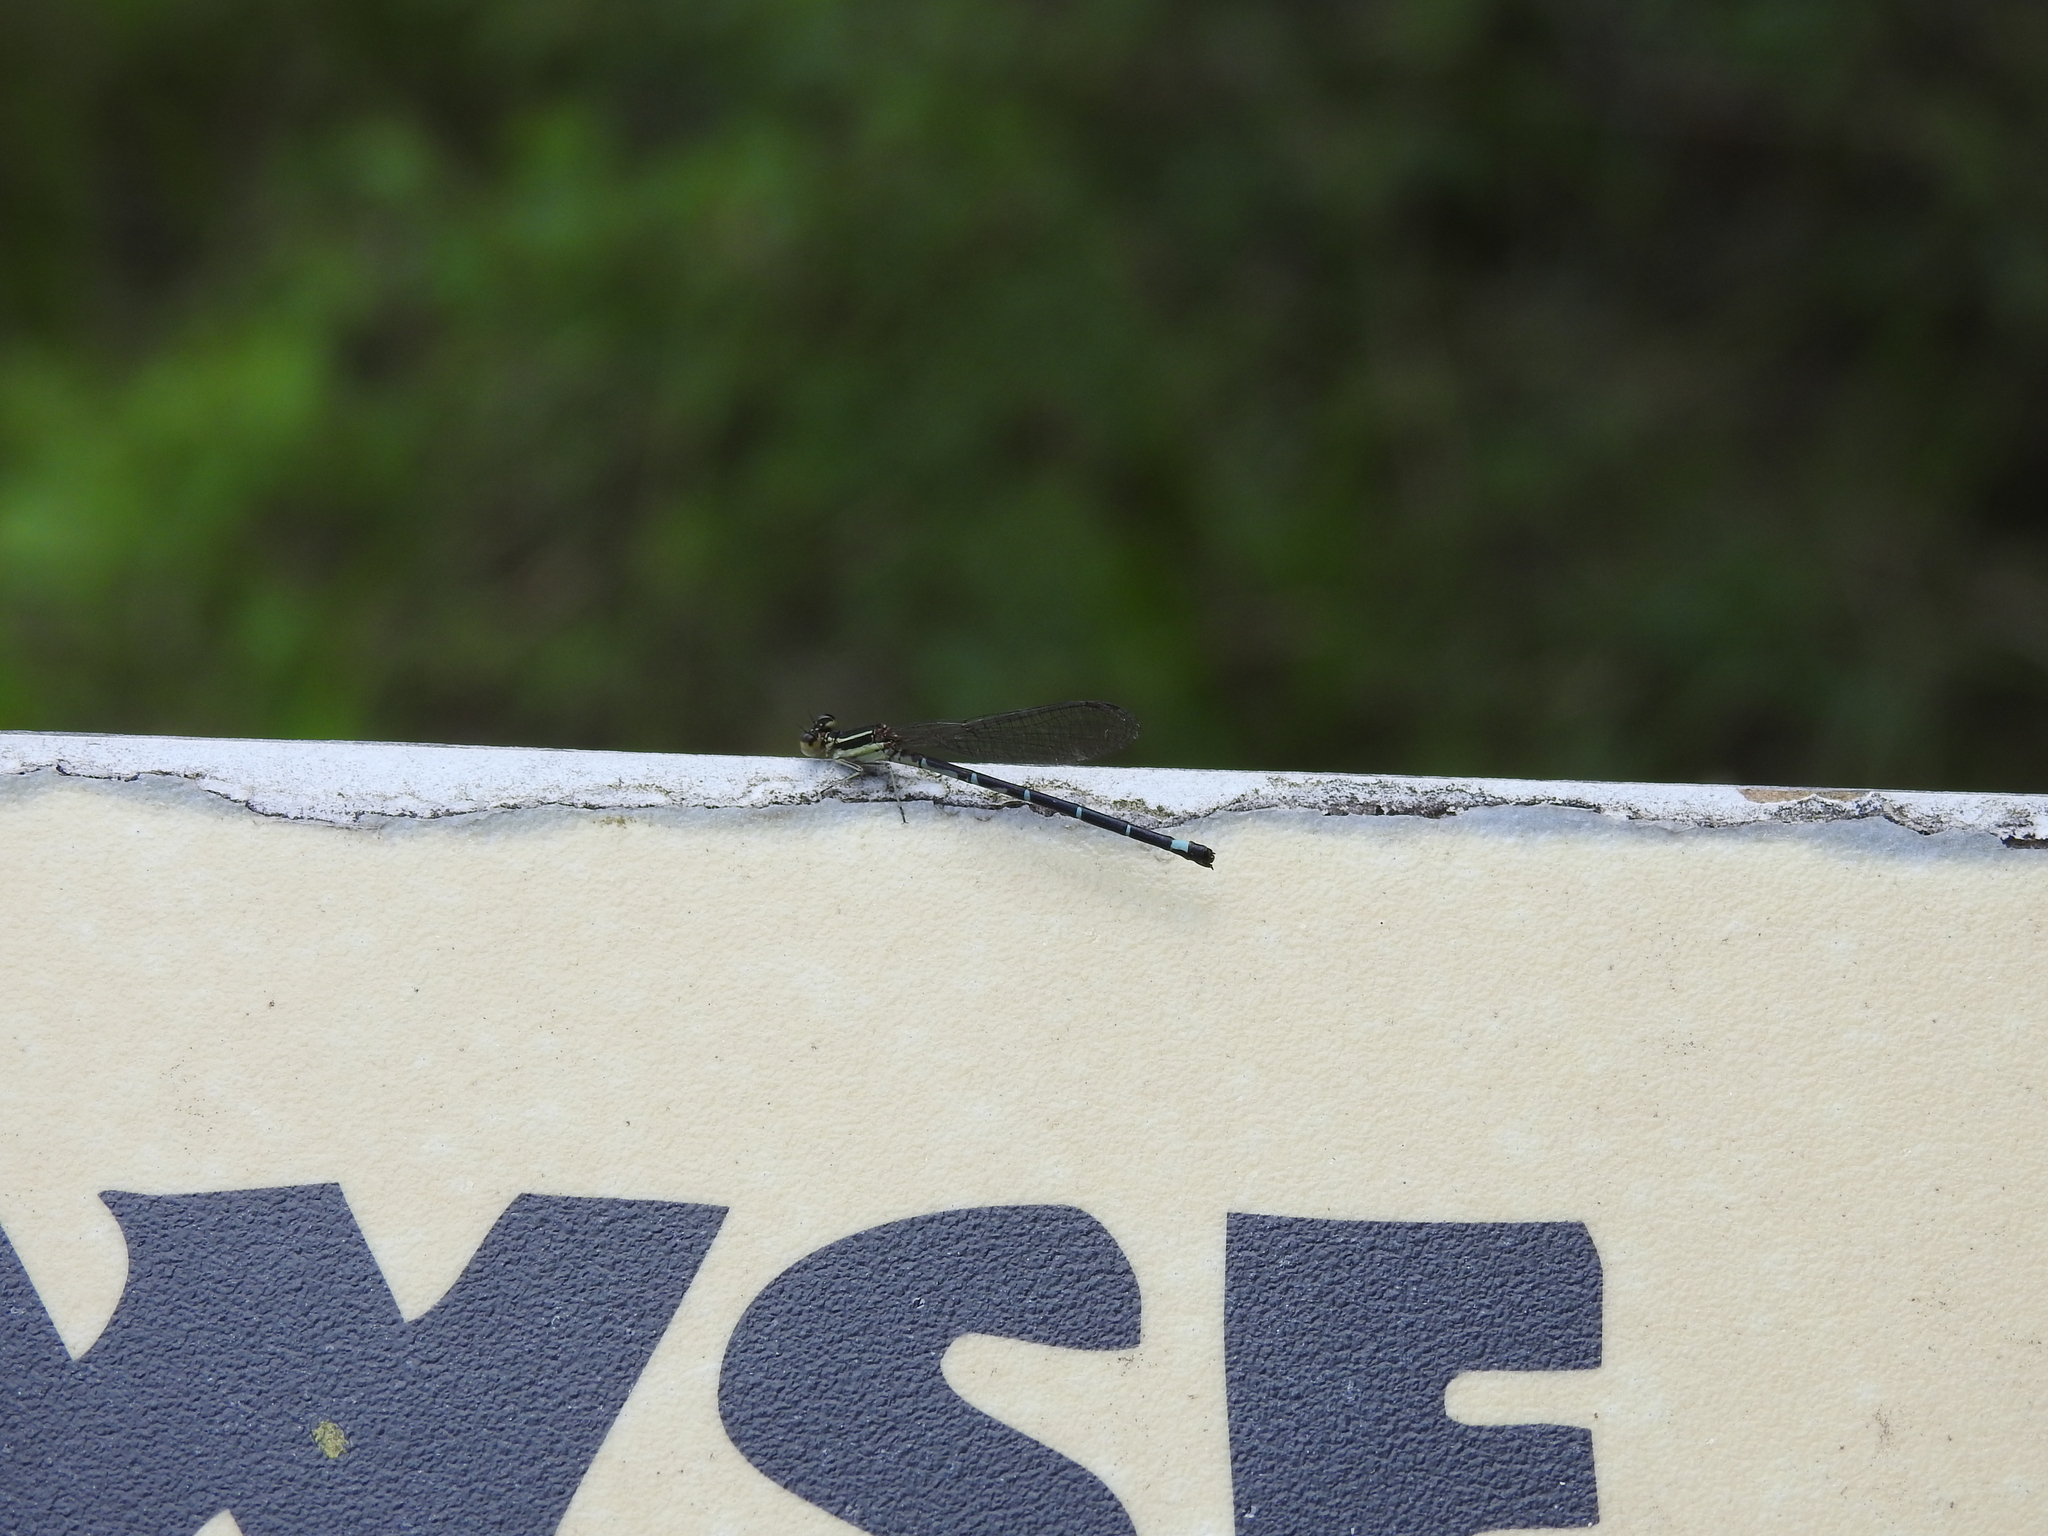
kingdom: Animalia
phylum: Arthropoda
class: Insecta
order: Odonata
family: Coenagrionidae
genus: Argia
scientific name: Argia bipunctulata
